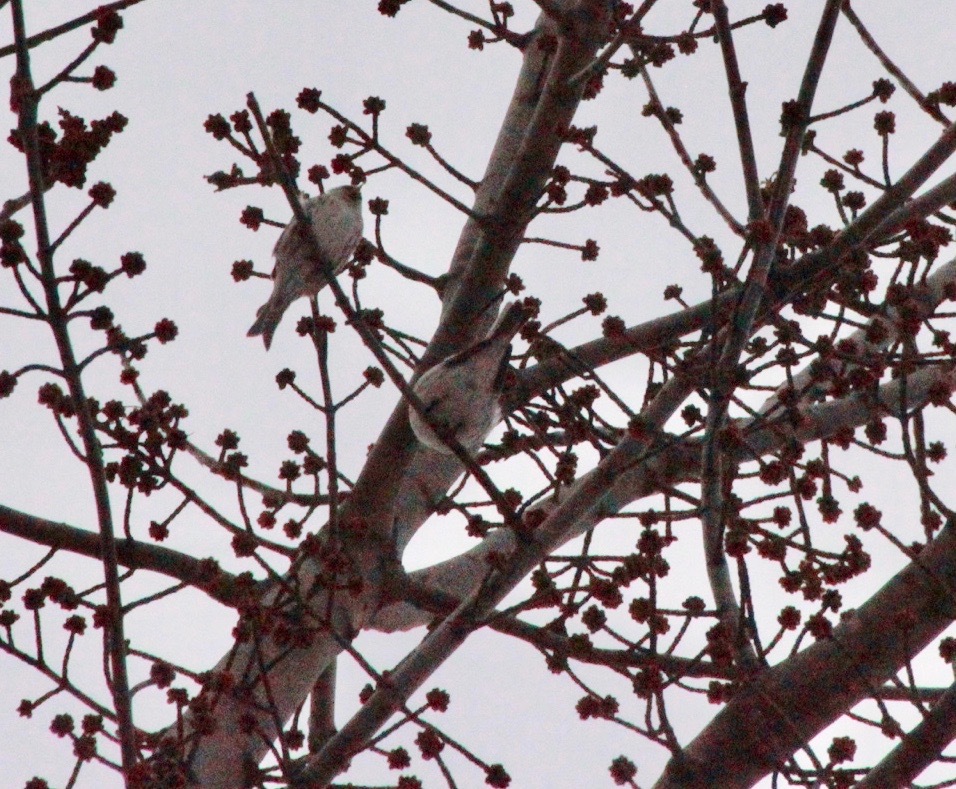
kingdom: Animalia
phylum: Chordata
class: Aves
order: Passeriformes
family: Fringillidae
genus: Acanthis
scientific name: Acanthis hornemanni
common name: Arctic redpoll
